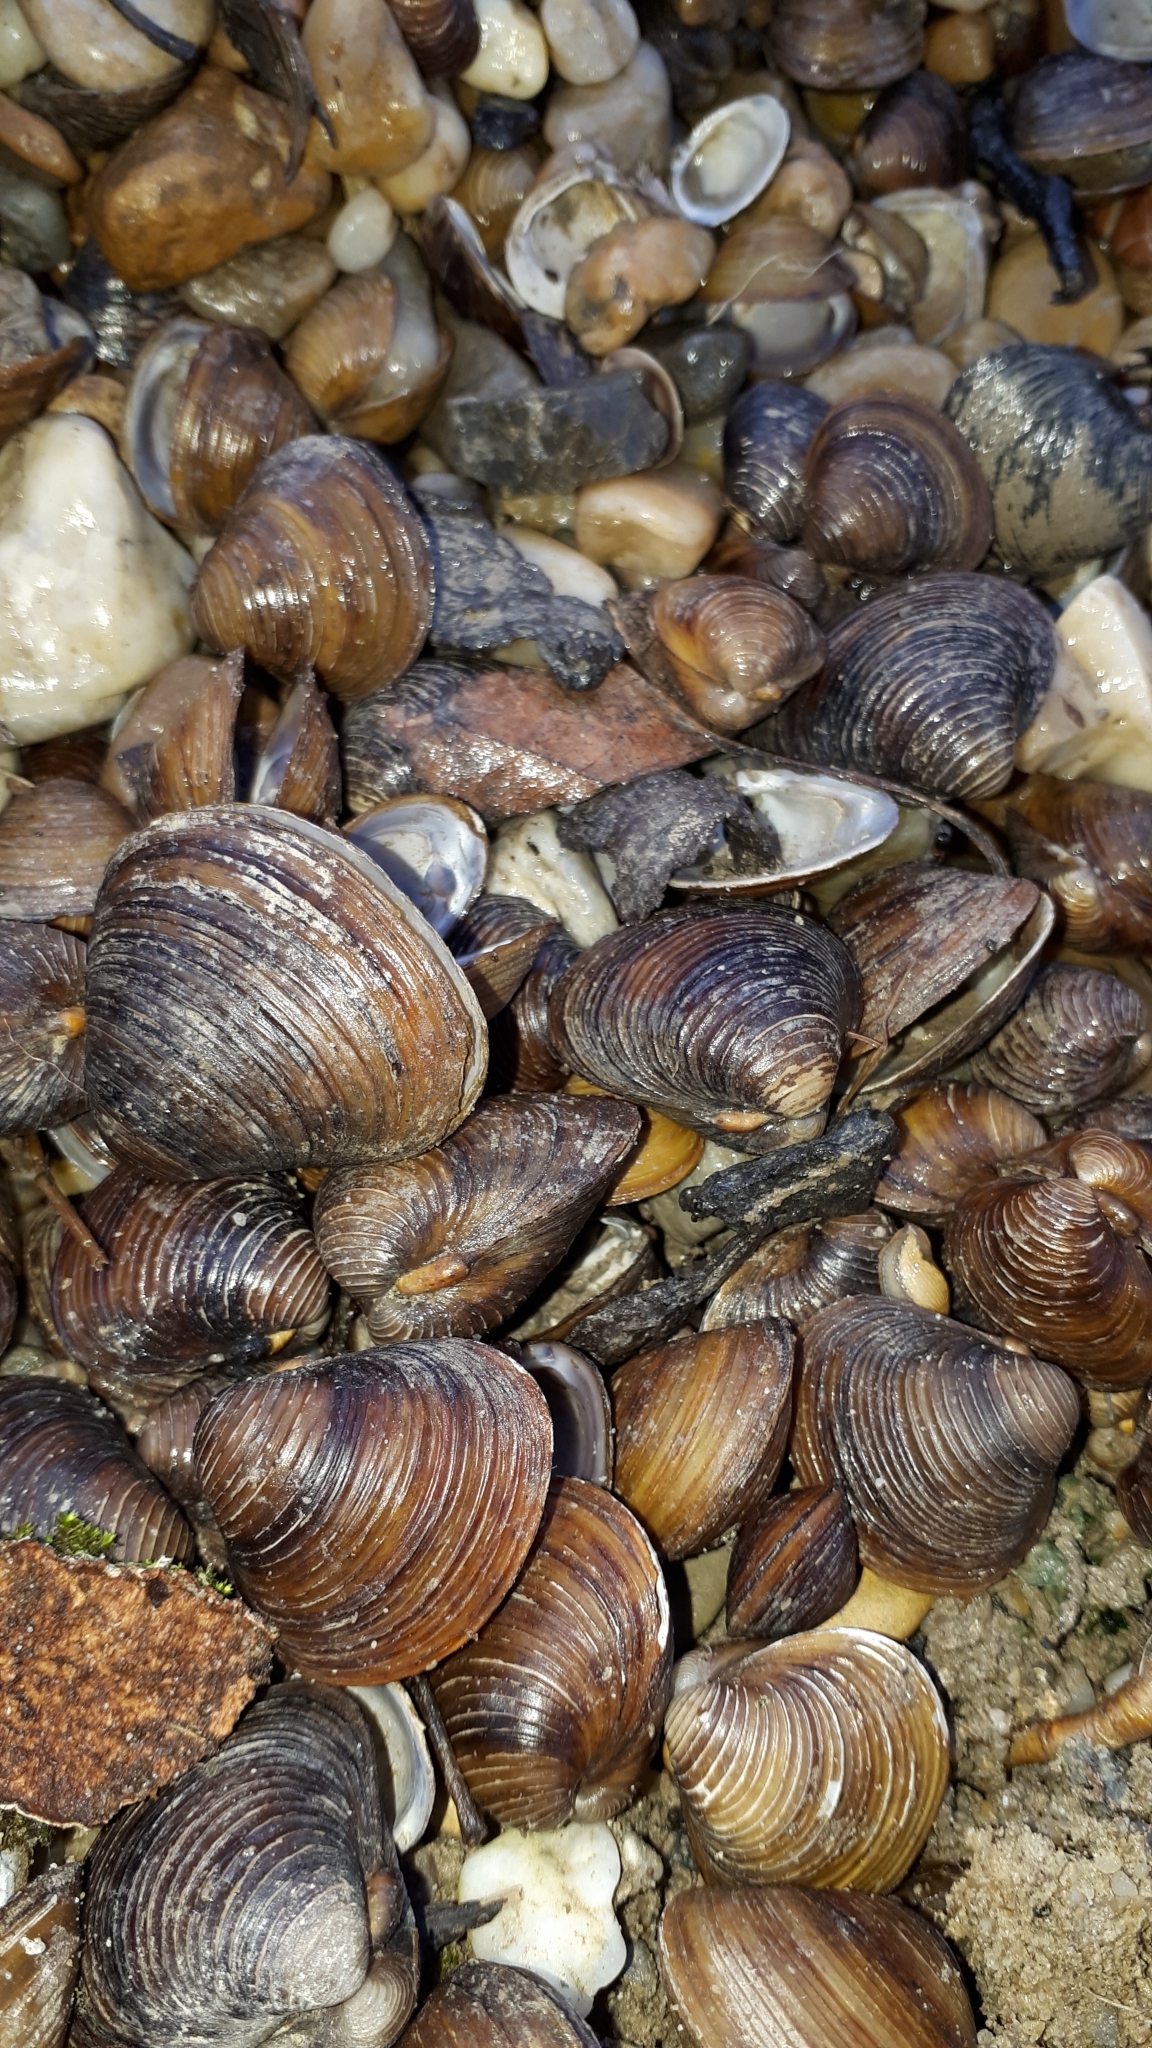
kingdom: Animalia
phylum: Mollusca
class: Bivalvia
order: Venerida
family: Cyrenidae
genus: Corbicula
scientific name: Corbicula fluminea
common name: Asian clam
